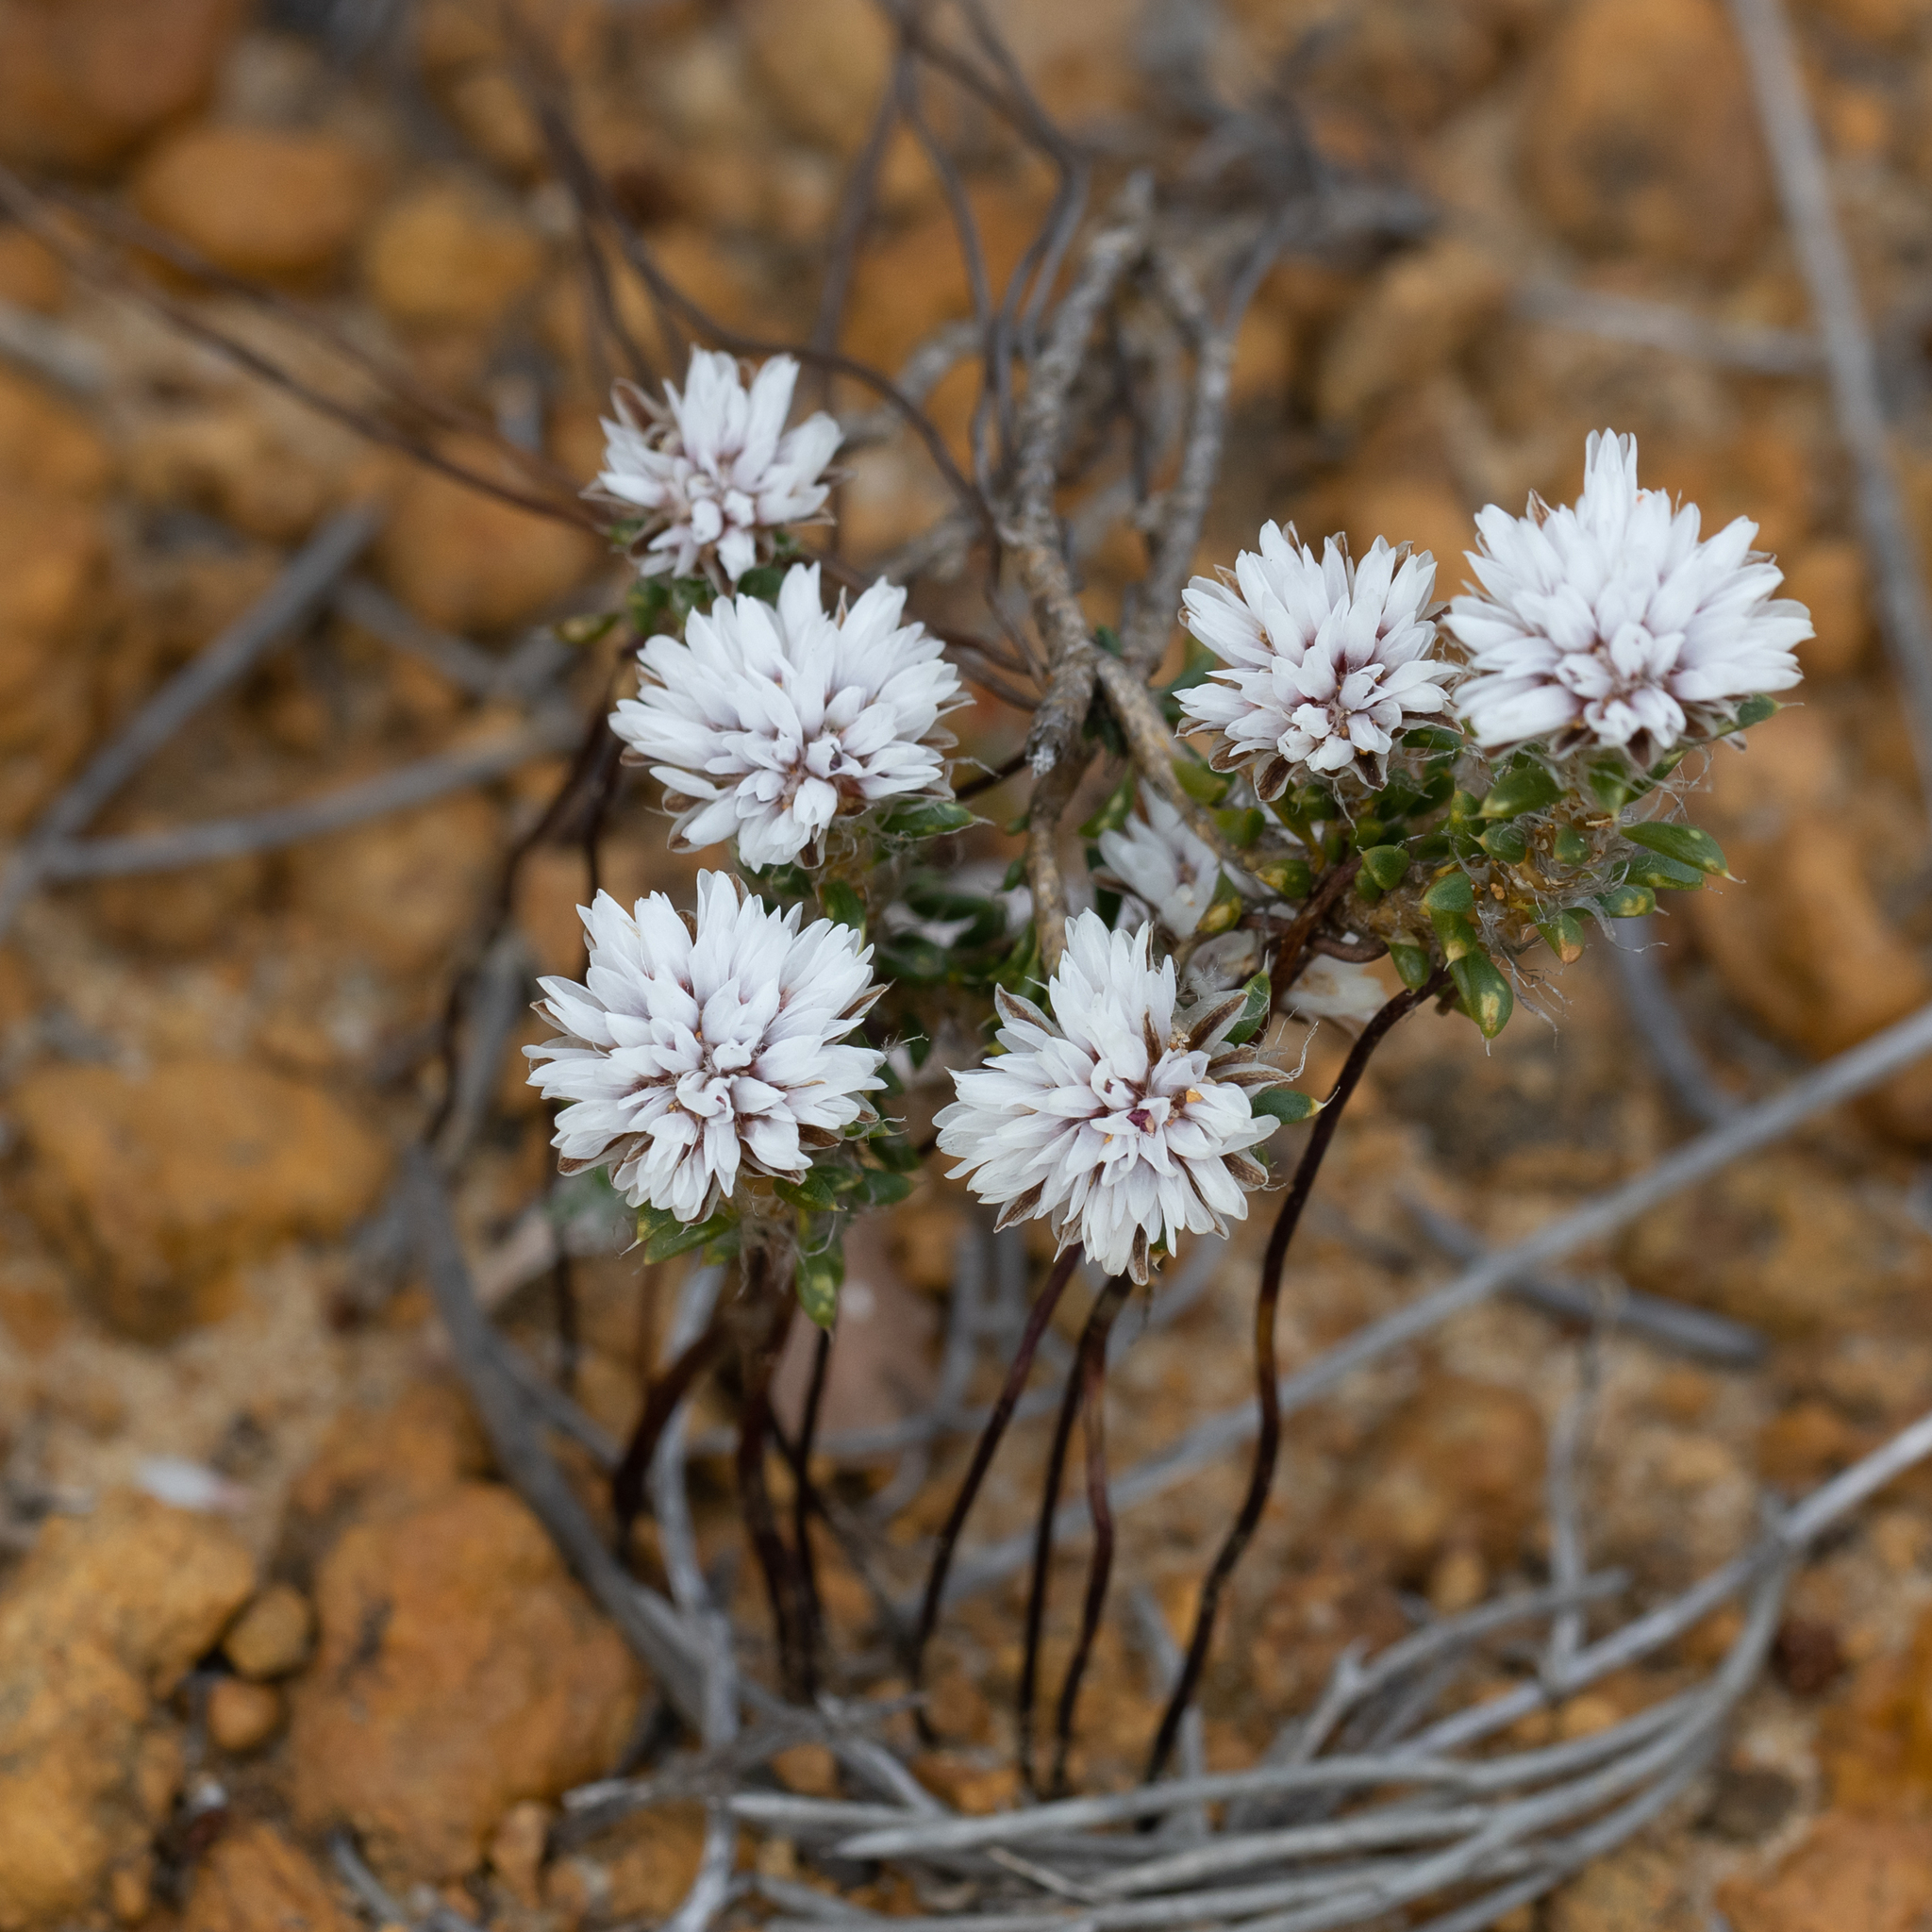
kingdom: Plantae
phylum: Tracheophyta
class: Liliopsida
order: Asparagales
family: Asparagaceae
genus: Laxmannia
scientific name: Laxmannia brachyphylla
